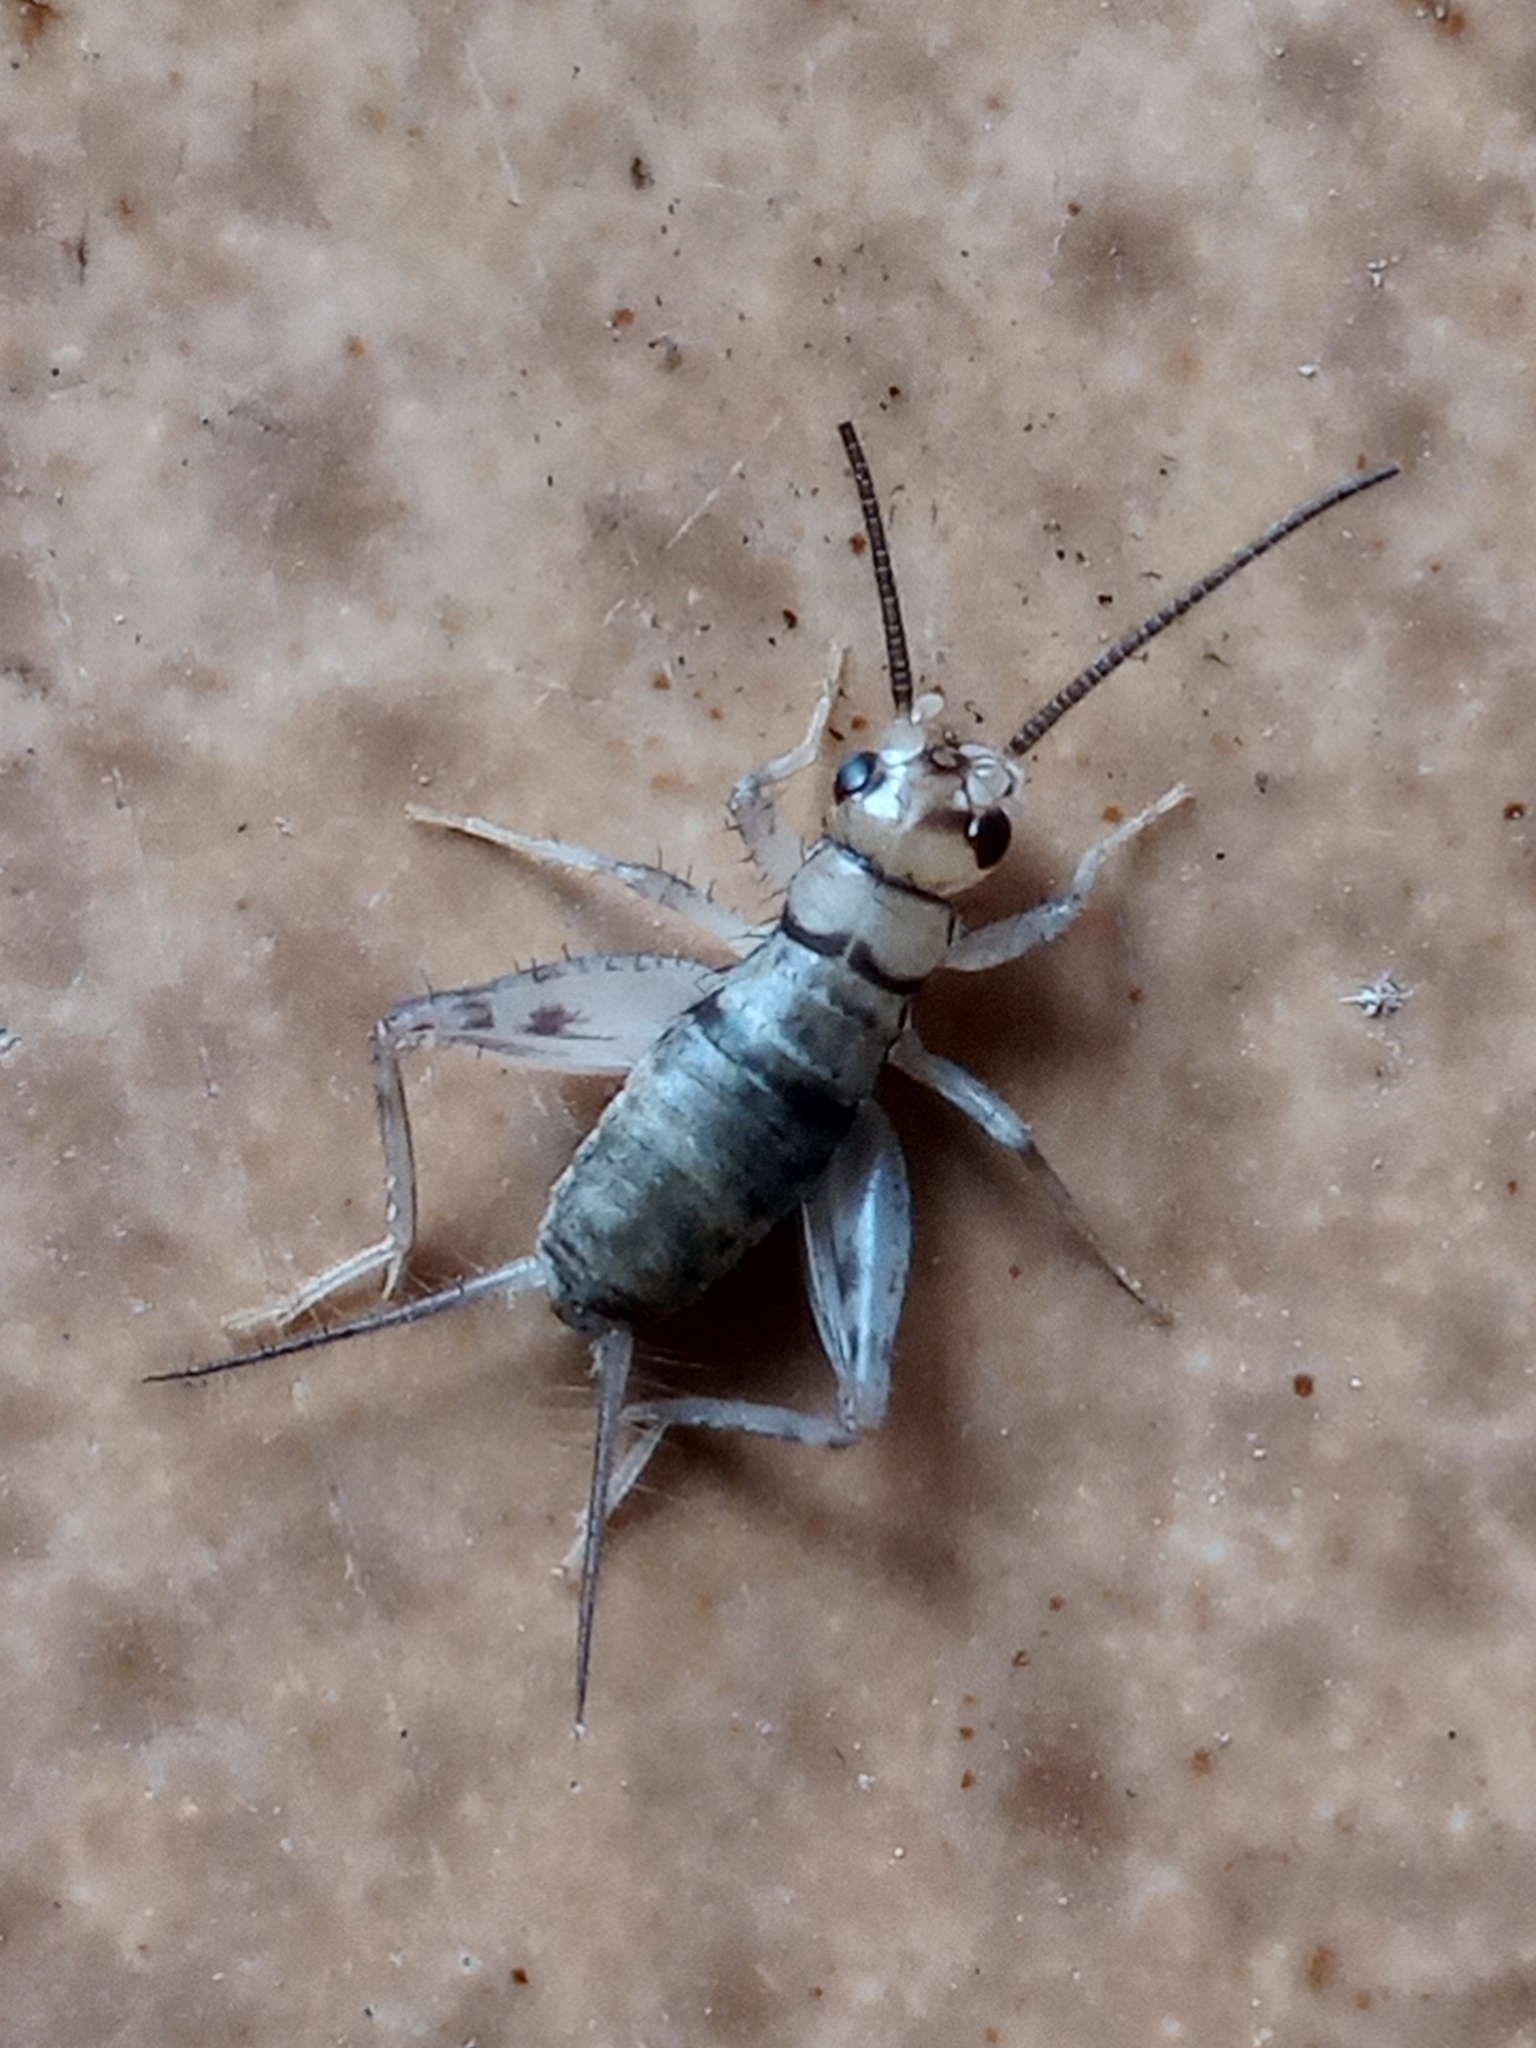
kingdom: Animalia
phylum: Arthropoda
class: Insecta
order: Orthoptera
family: Gryllidae
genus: Gryllodes
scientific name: Gryllodes sigillatus
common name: Tropical house cricket
